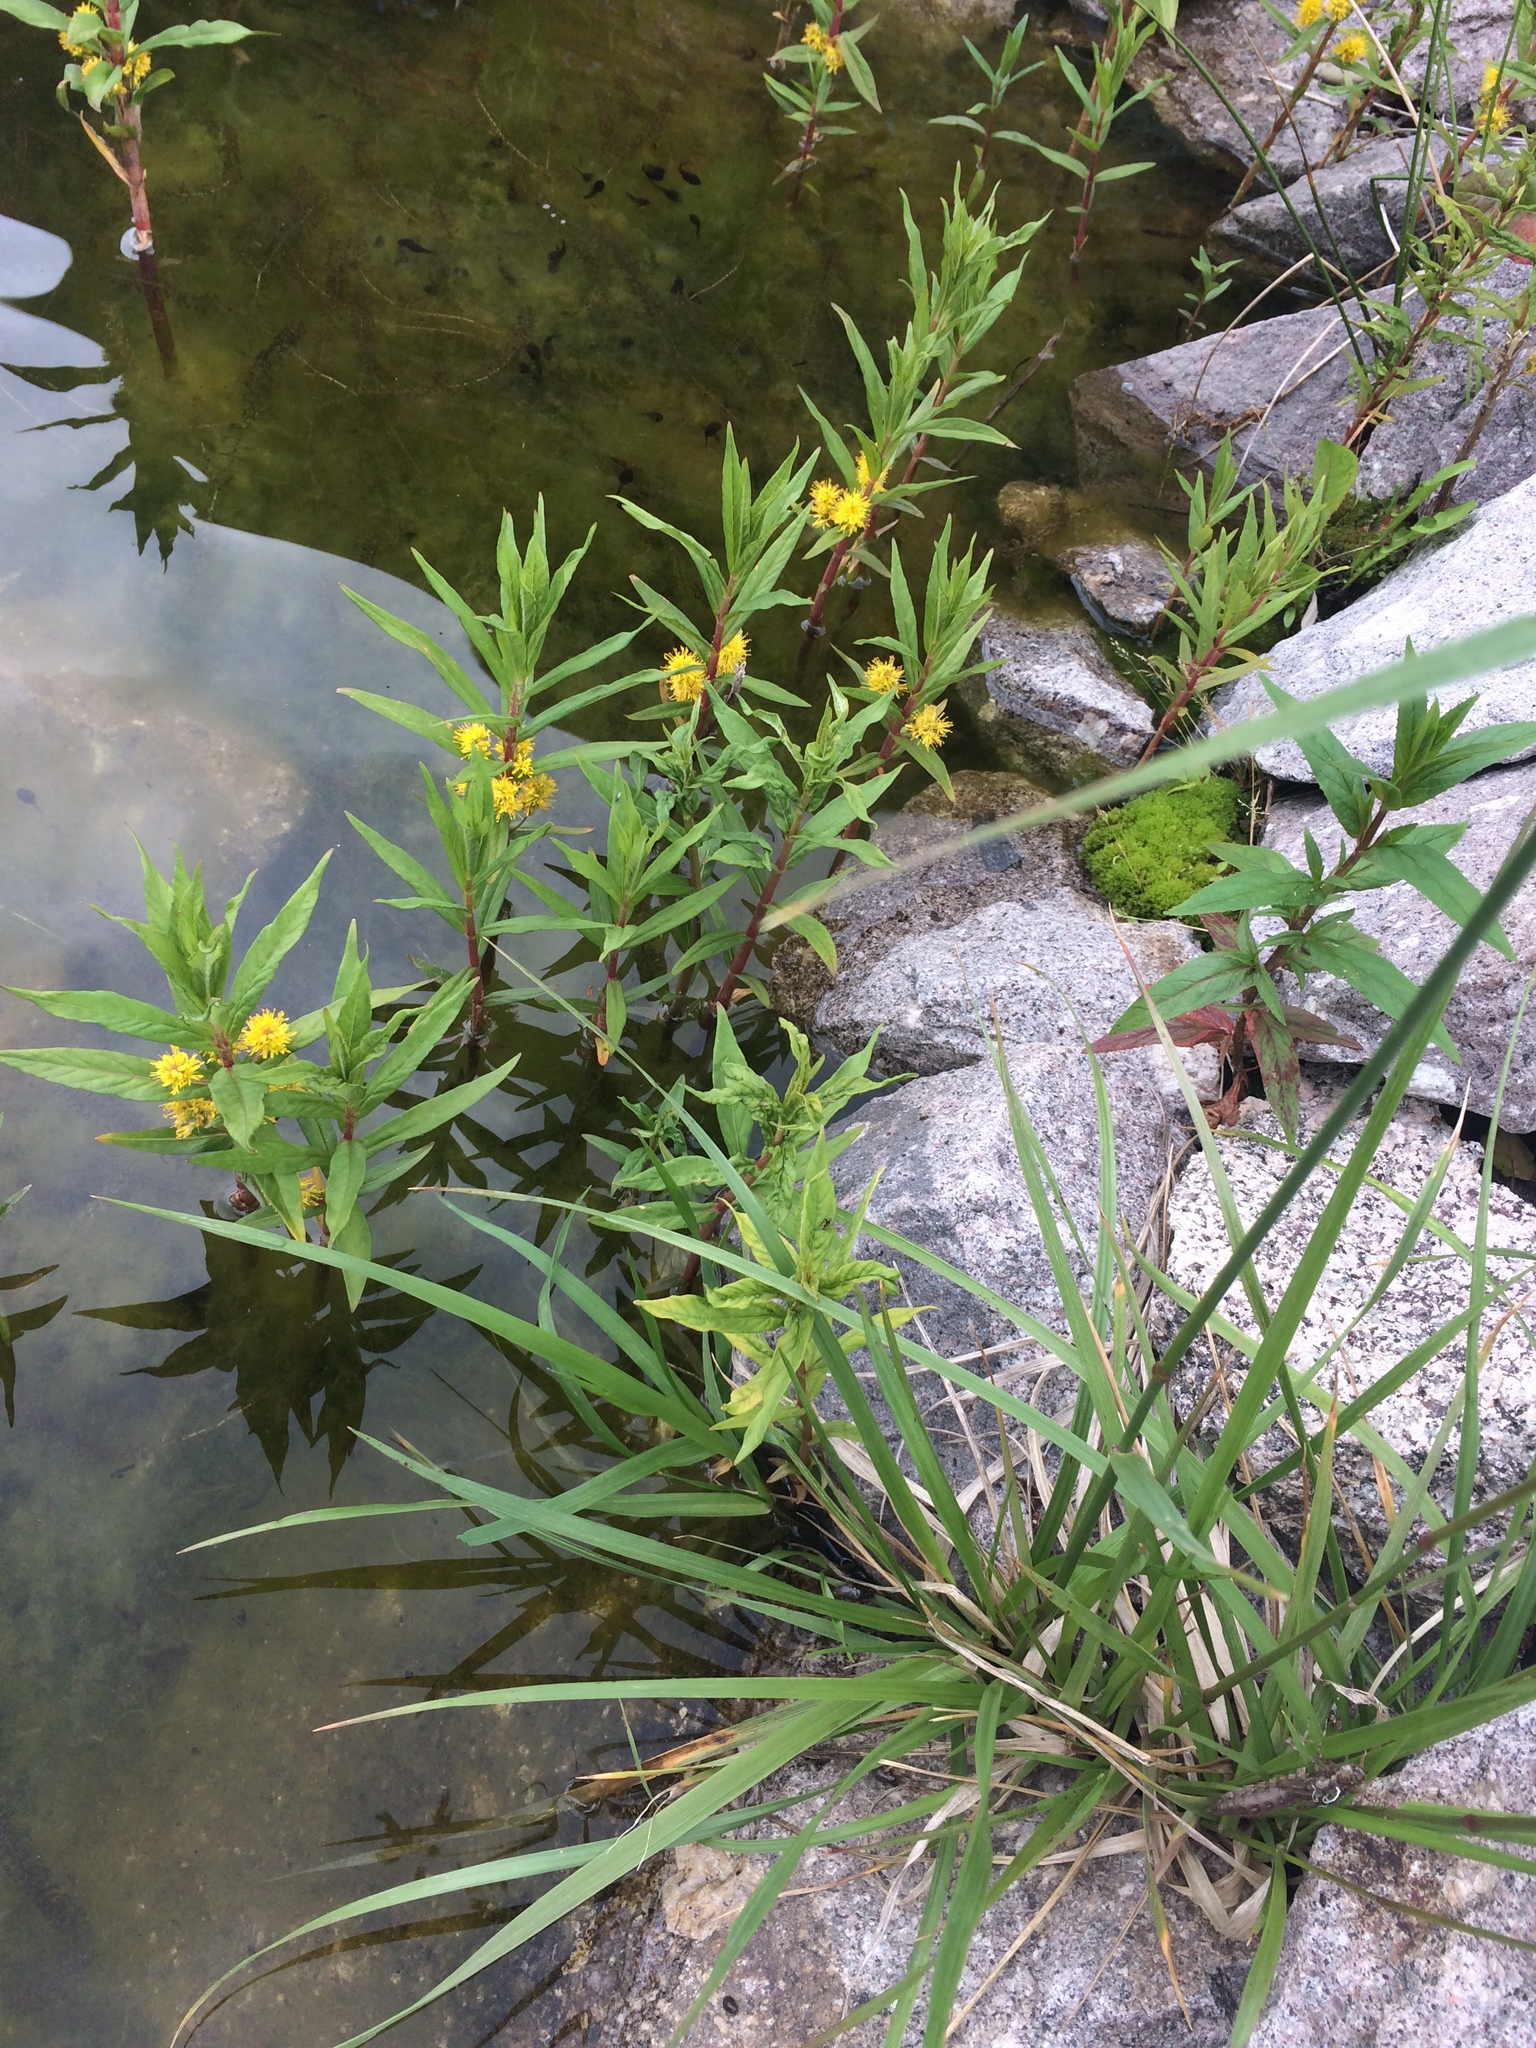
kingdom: Plantae
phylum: Tracheophyta
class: Magnoliopsida
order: Ericales
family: Primulaceae
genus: Lysimachia
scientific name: Lysimachia thyrsiflora
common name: Tufted loosestrife
